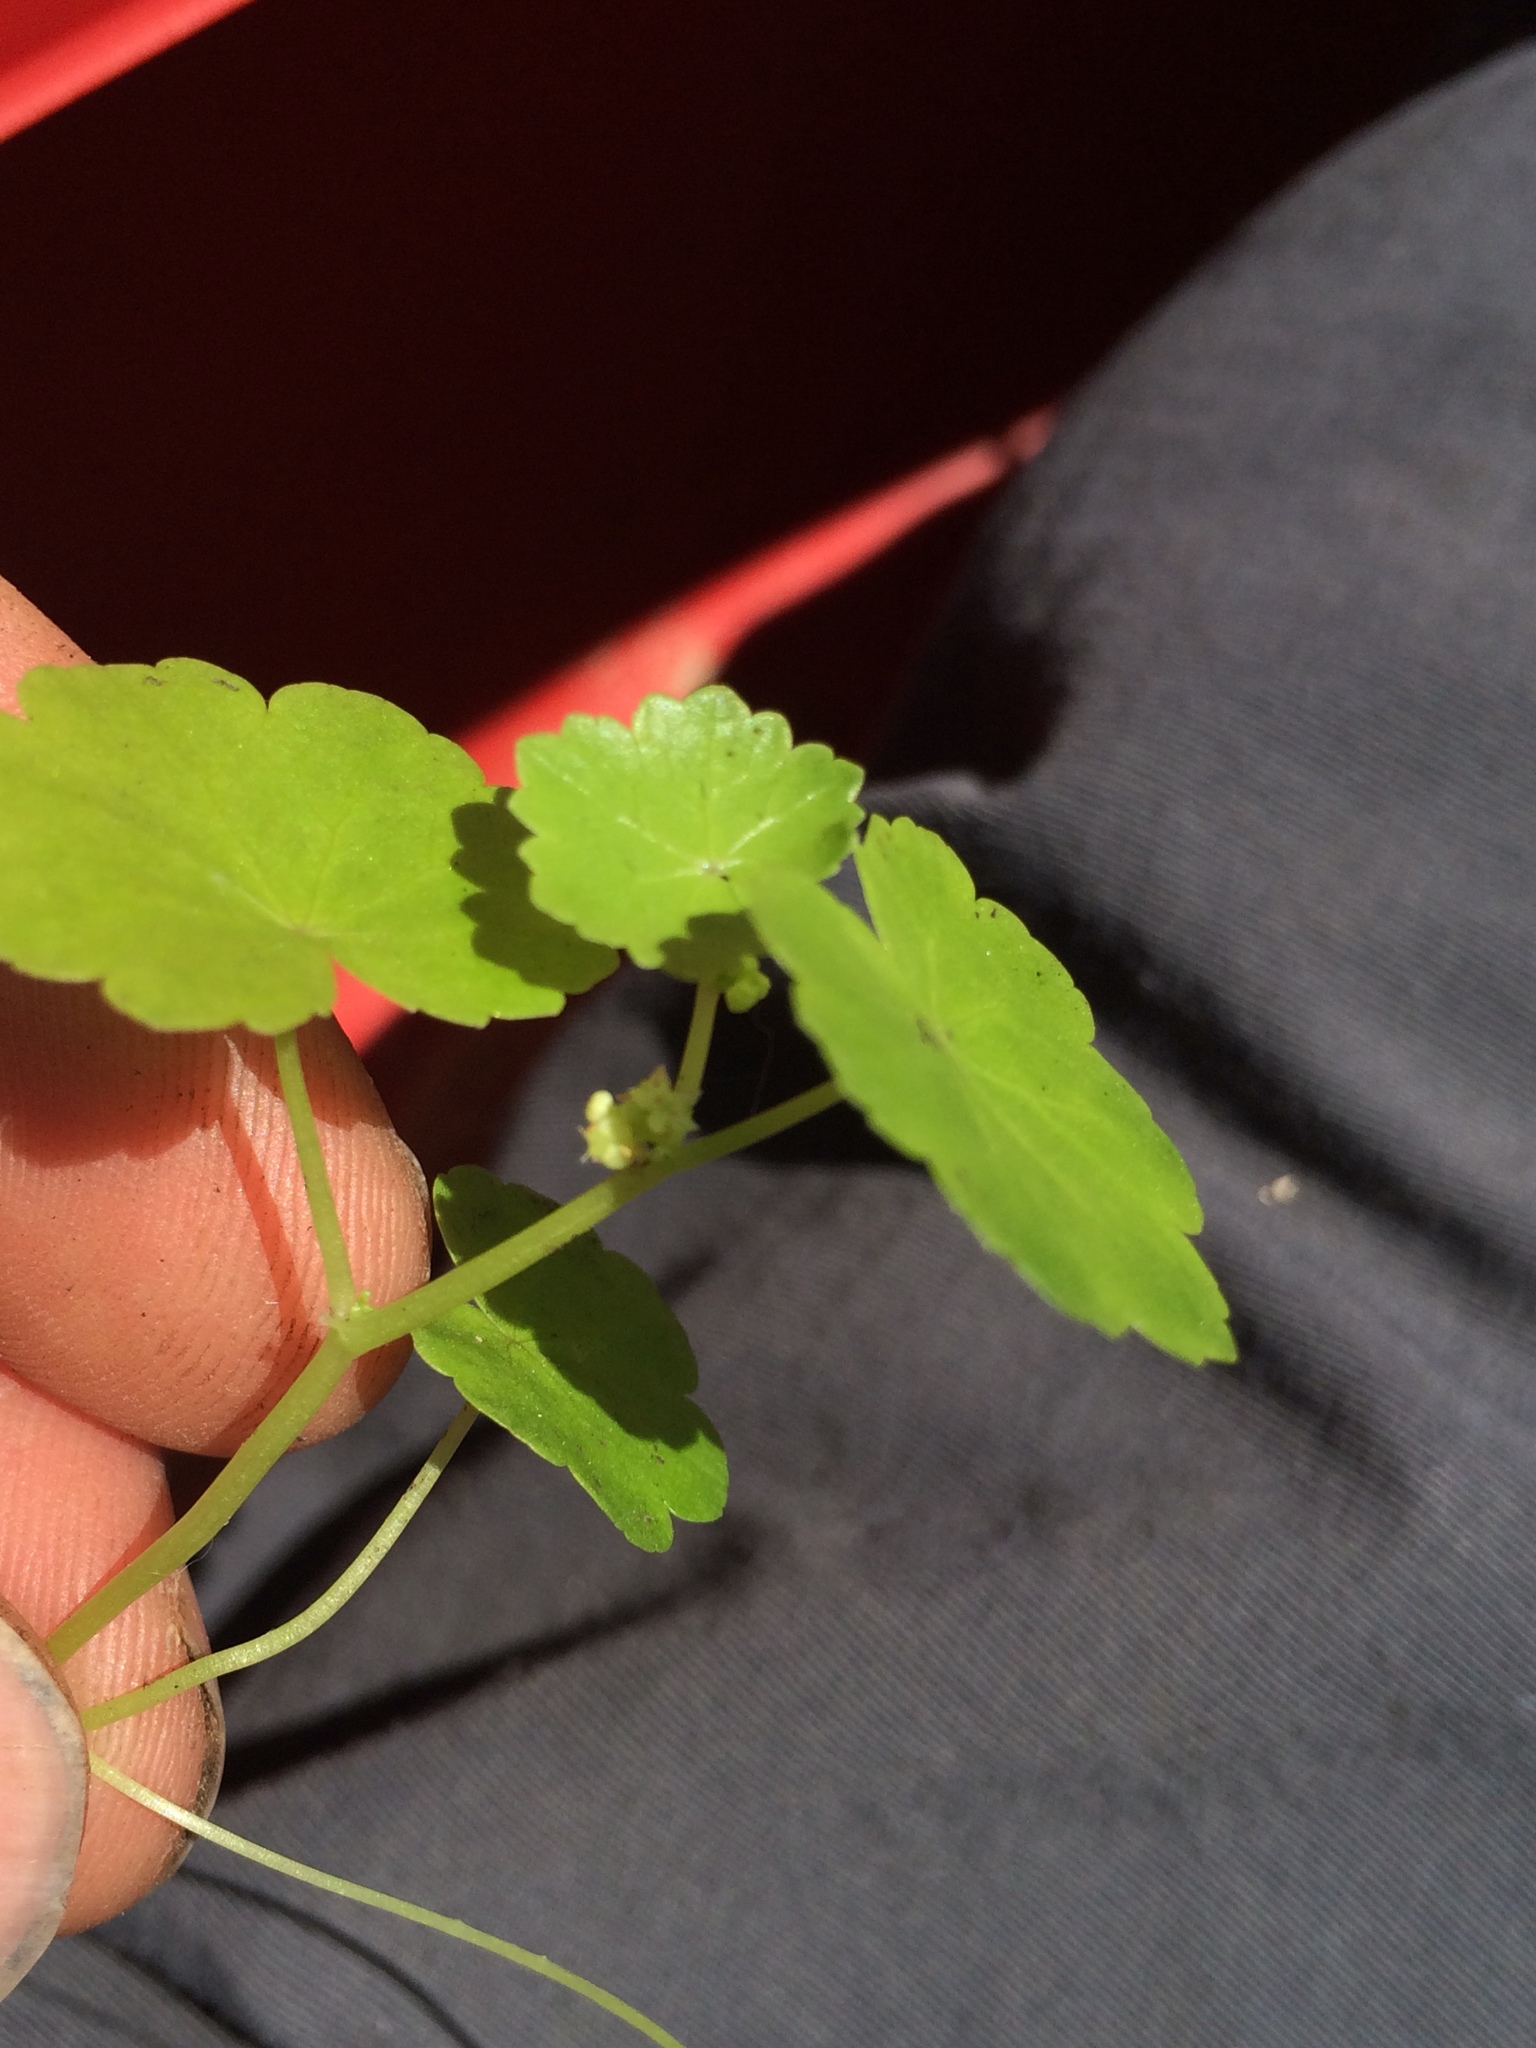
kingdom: Plantae
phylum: Tracheophyta
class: Magnoliopsida
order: Apiales
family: Araliaceae
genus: Hydrocotyle
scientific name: Hydrocotyle americana
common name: American water-pennywort
